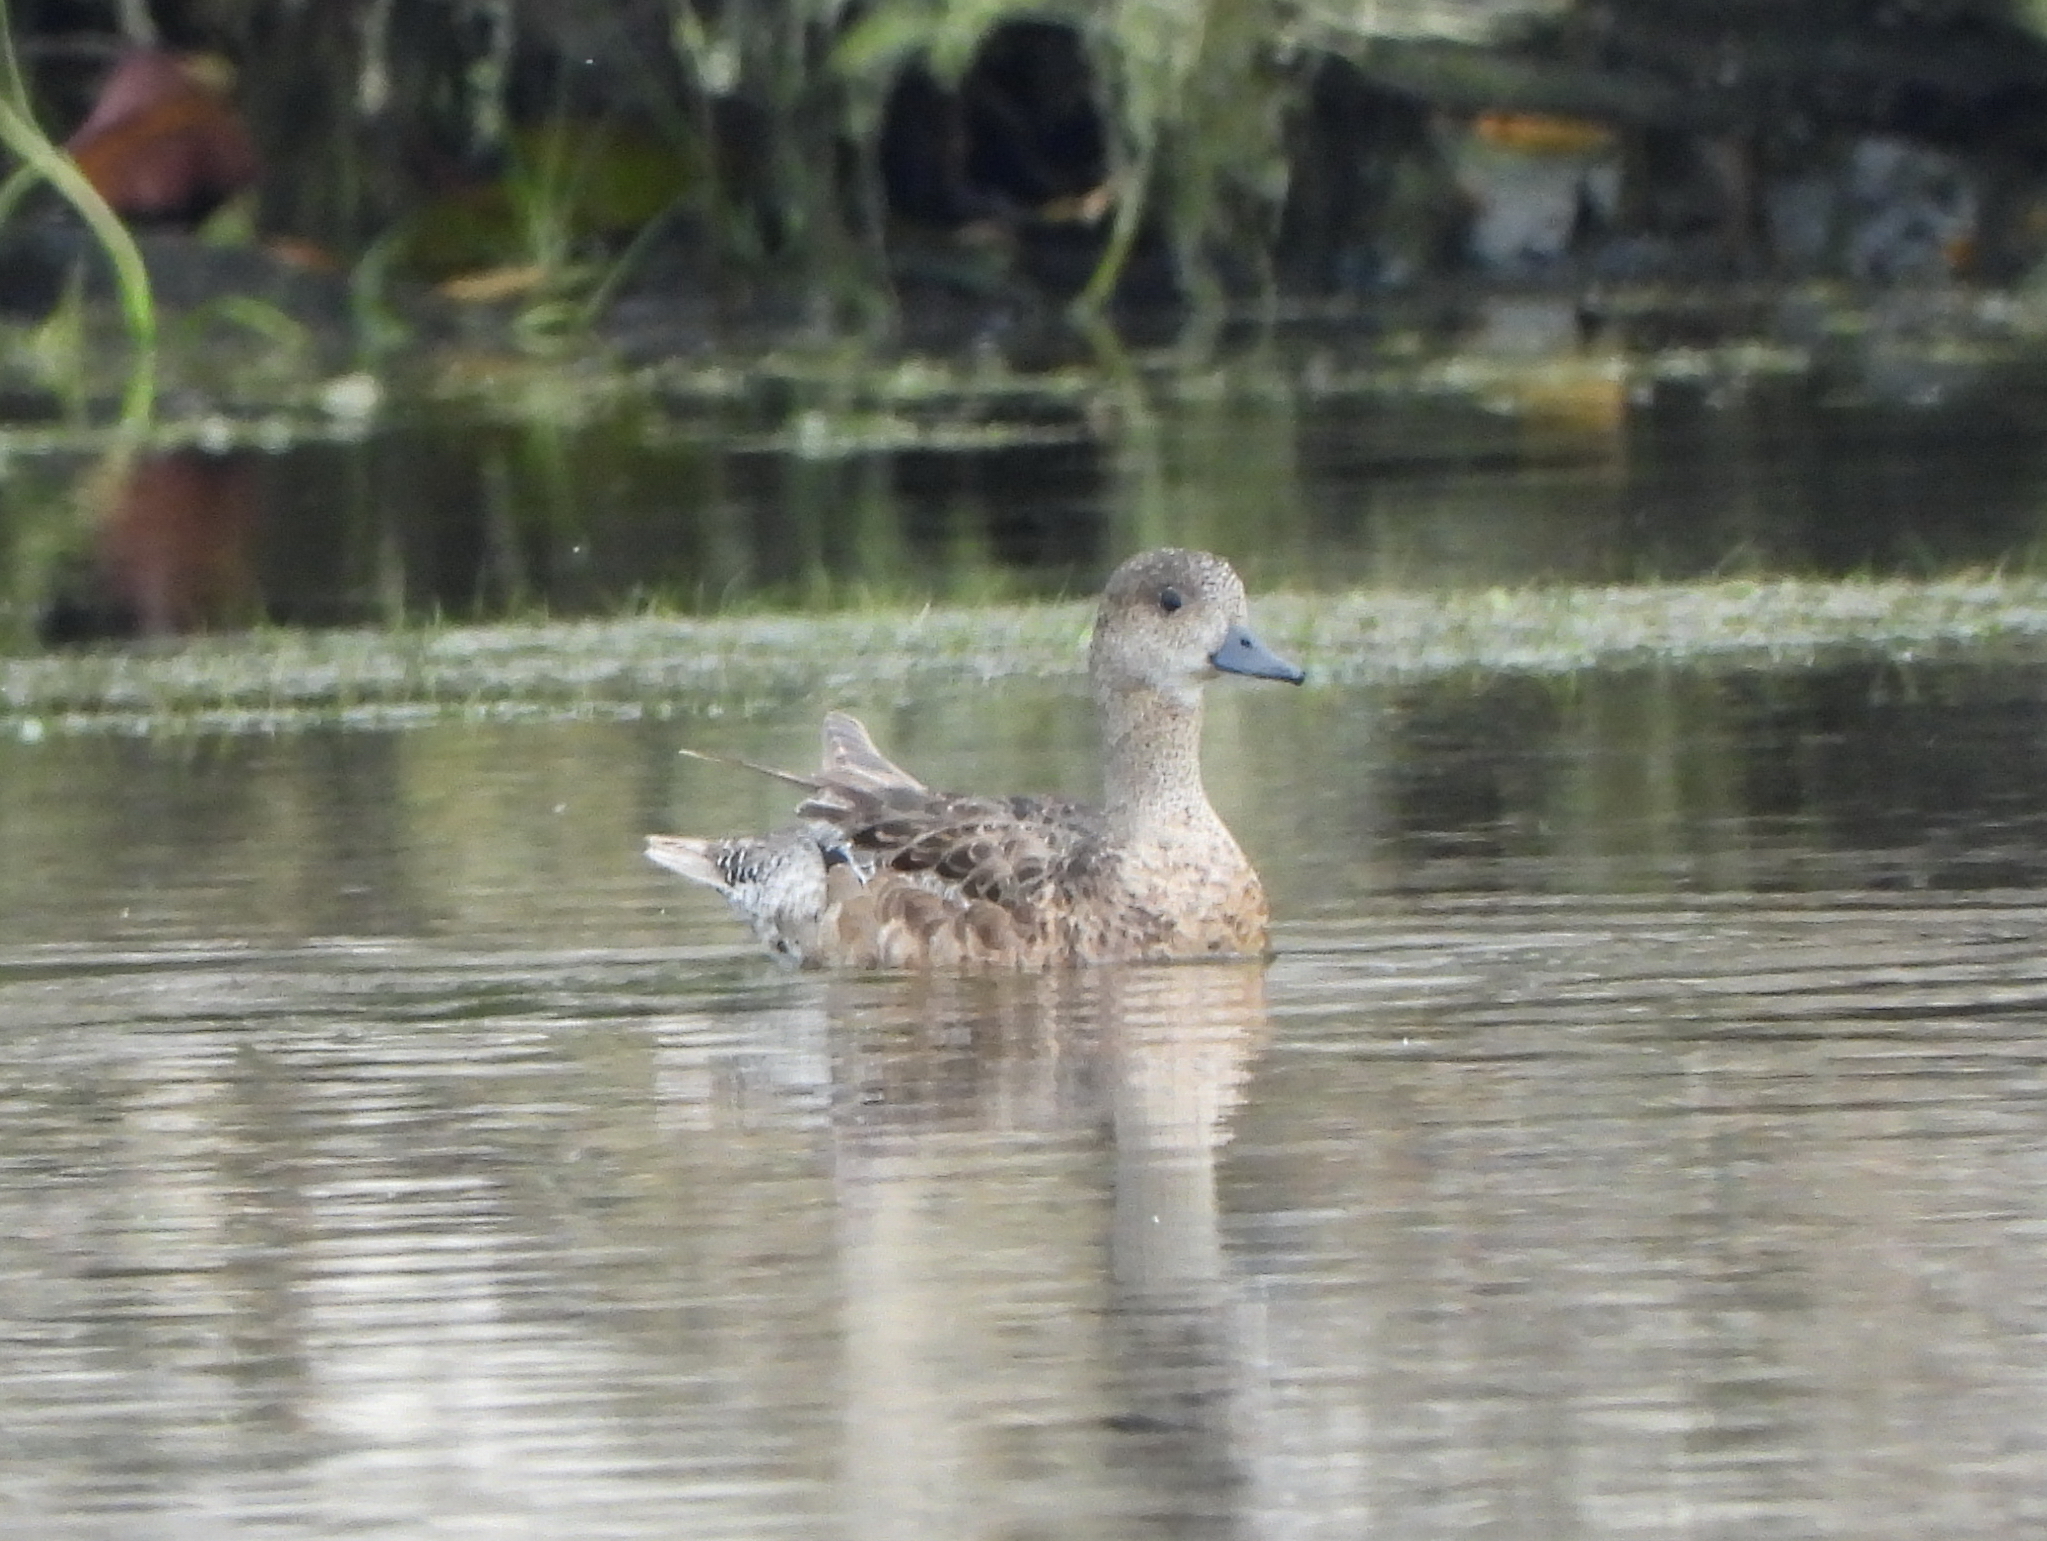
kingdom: Animalia
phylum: Chordata
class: Aves
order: Anseriformes
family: Anatidae
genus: Mareca
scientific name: Mareca penelope
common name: Eurasian wigeon
